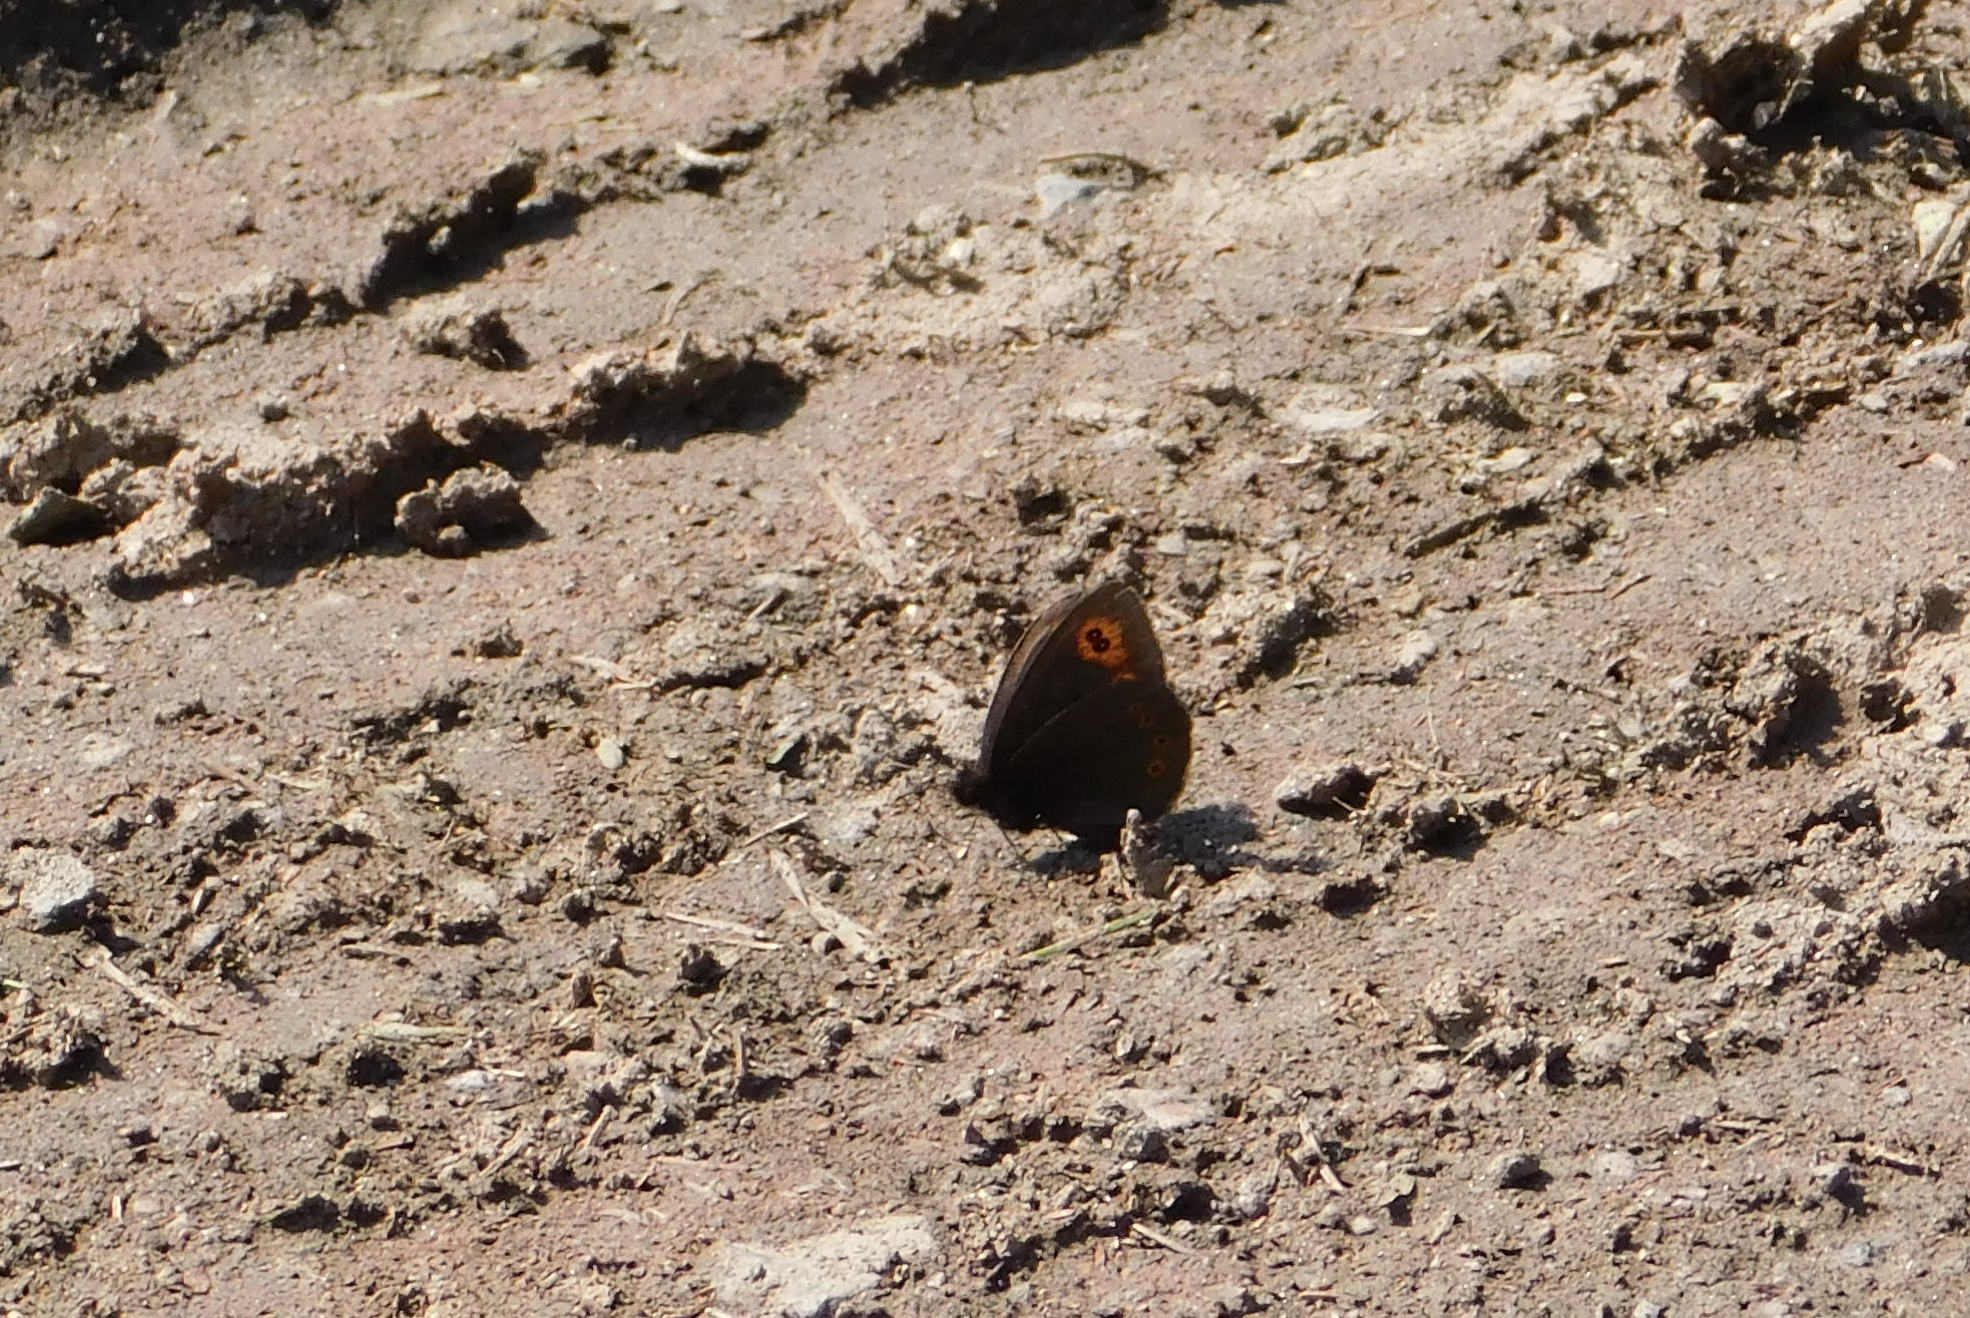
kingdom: Animalia
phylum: Arthropoda
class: Insecta
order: Lepidoptera
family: Nymphalidae
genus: Erebia
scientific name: Erebia medusa
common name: Woodland ringlet
